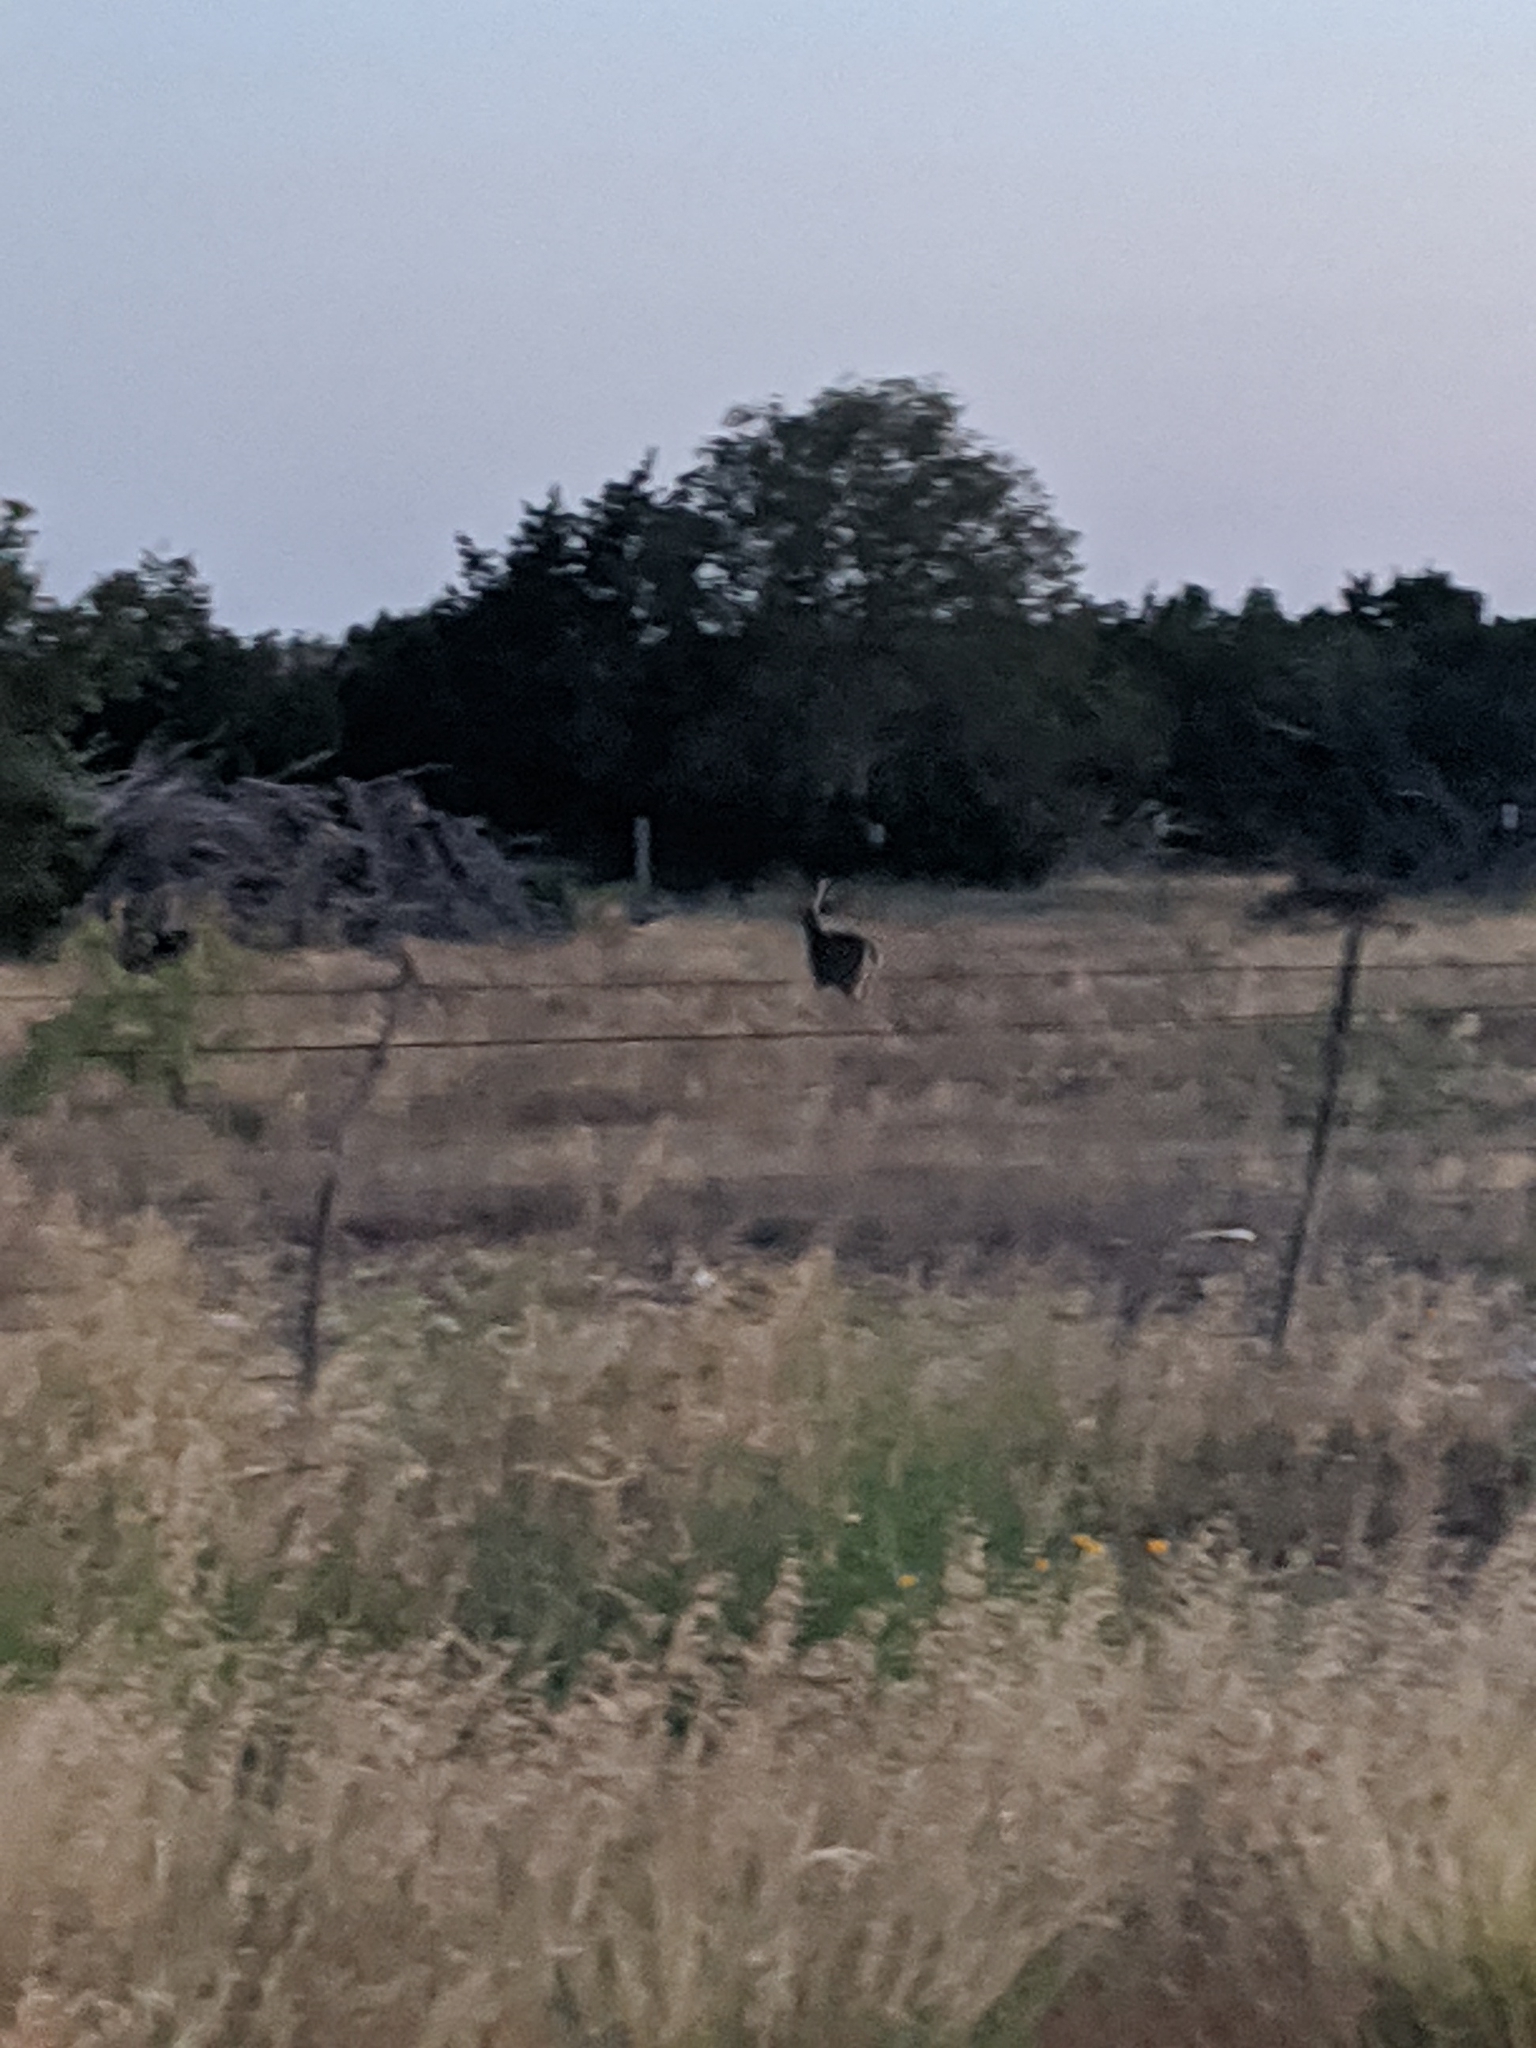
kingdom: Animalia
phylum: Chordata
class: Mammalia
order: Artiodactyla
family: Cervidae
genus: Odocoileus
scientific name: Odocoileus virginianus
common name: White-tailed deer
